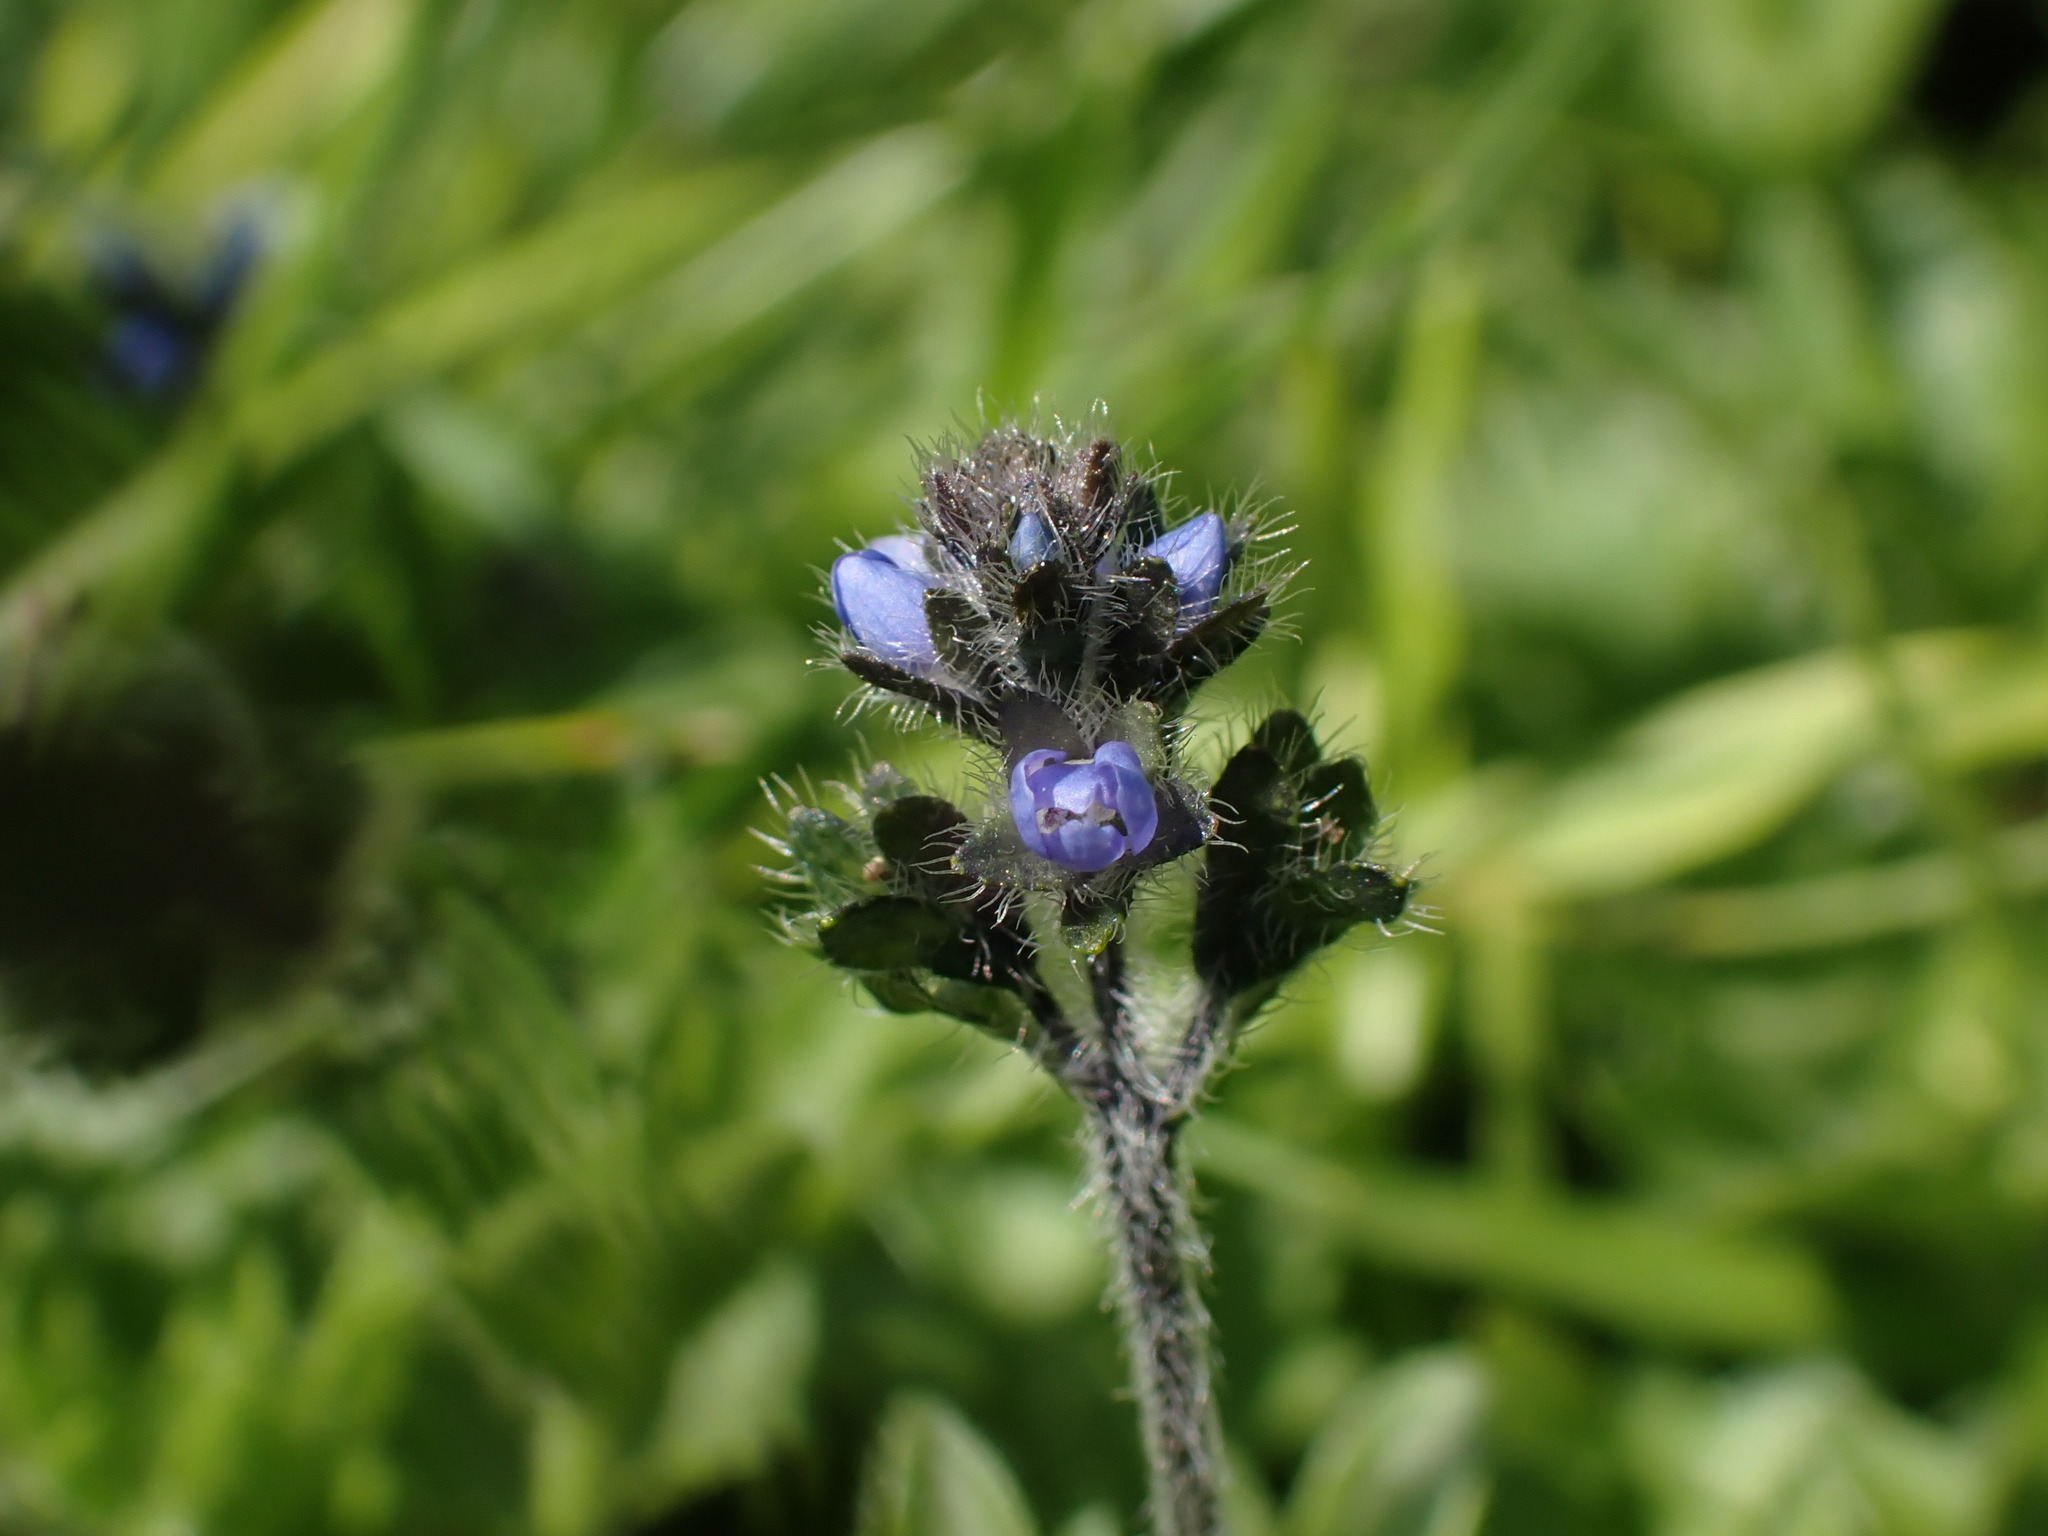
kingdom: Plantae
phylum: Tracheophyta
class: Magnoliopsida
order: Lamiales
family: Plantaginaceae
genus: Veronica
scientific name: Veronica alpina
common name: Alpine speedwell
